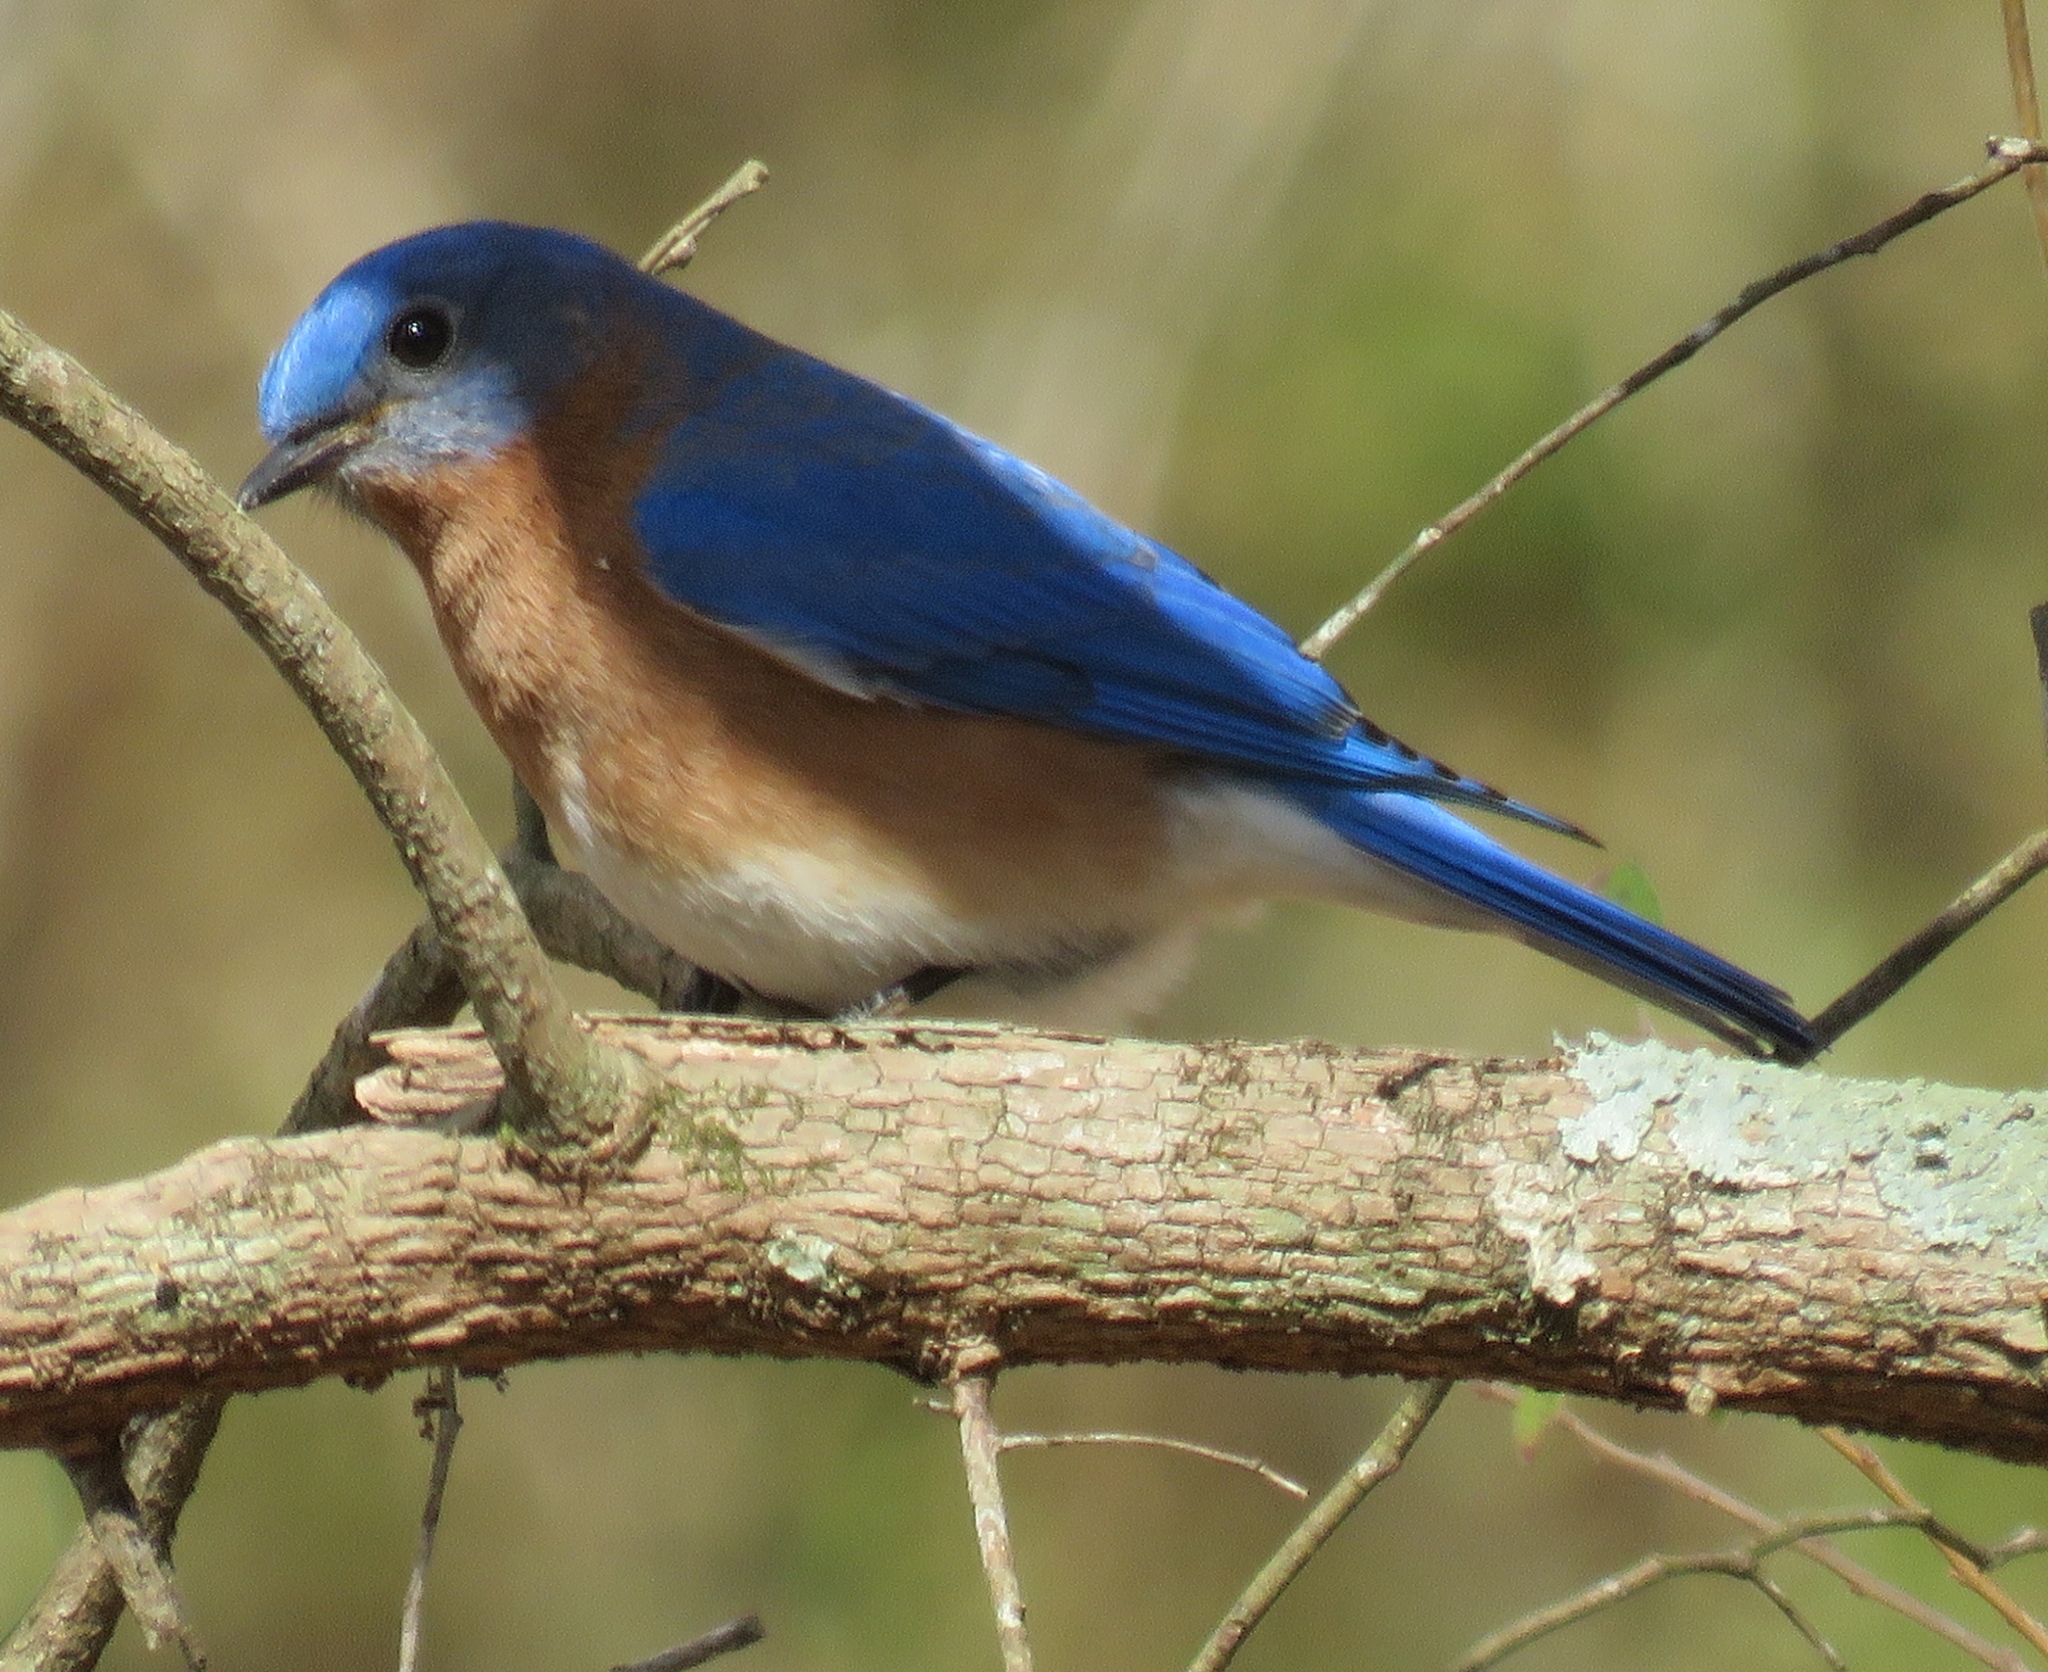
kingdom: Animalia
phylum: Chordata
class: Aves
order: Passeriformes
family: Turdidae
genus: Sialia
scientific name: Sialia sialis
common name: Eastern bluebird
